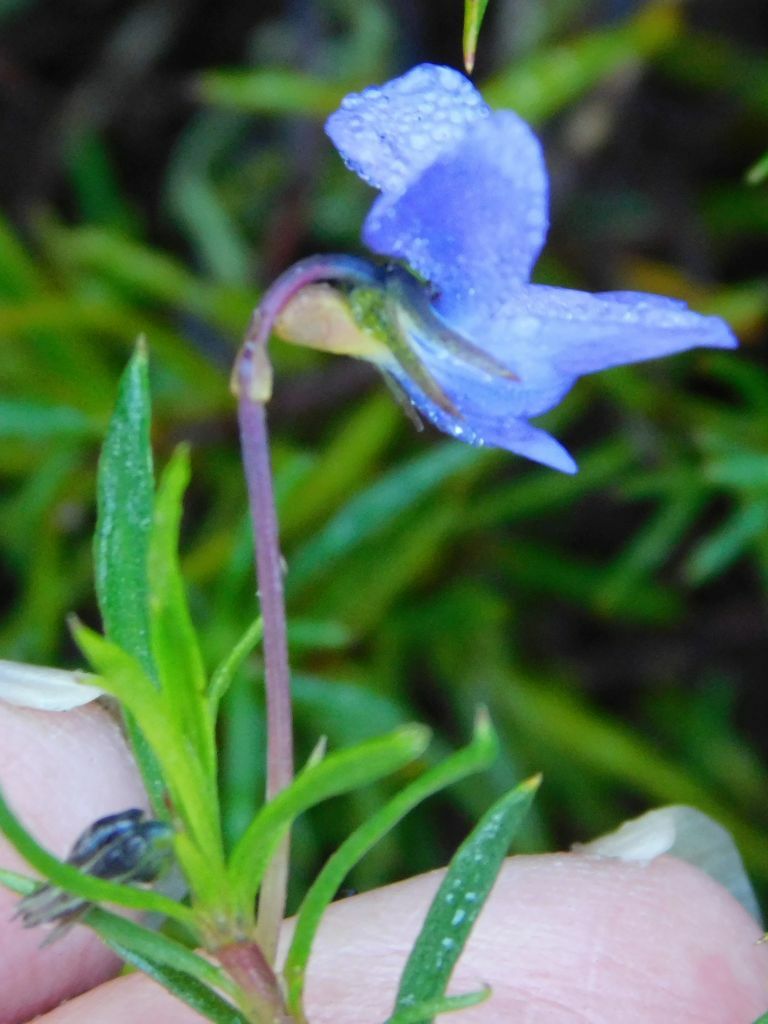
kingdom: Plantae
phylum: Tracheophyta
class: Magnoliopsida
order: Malpighiales
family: Violaceae
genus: Viola
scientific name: Viola decumbens
